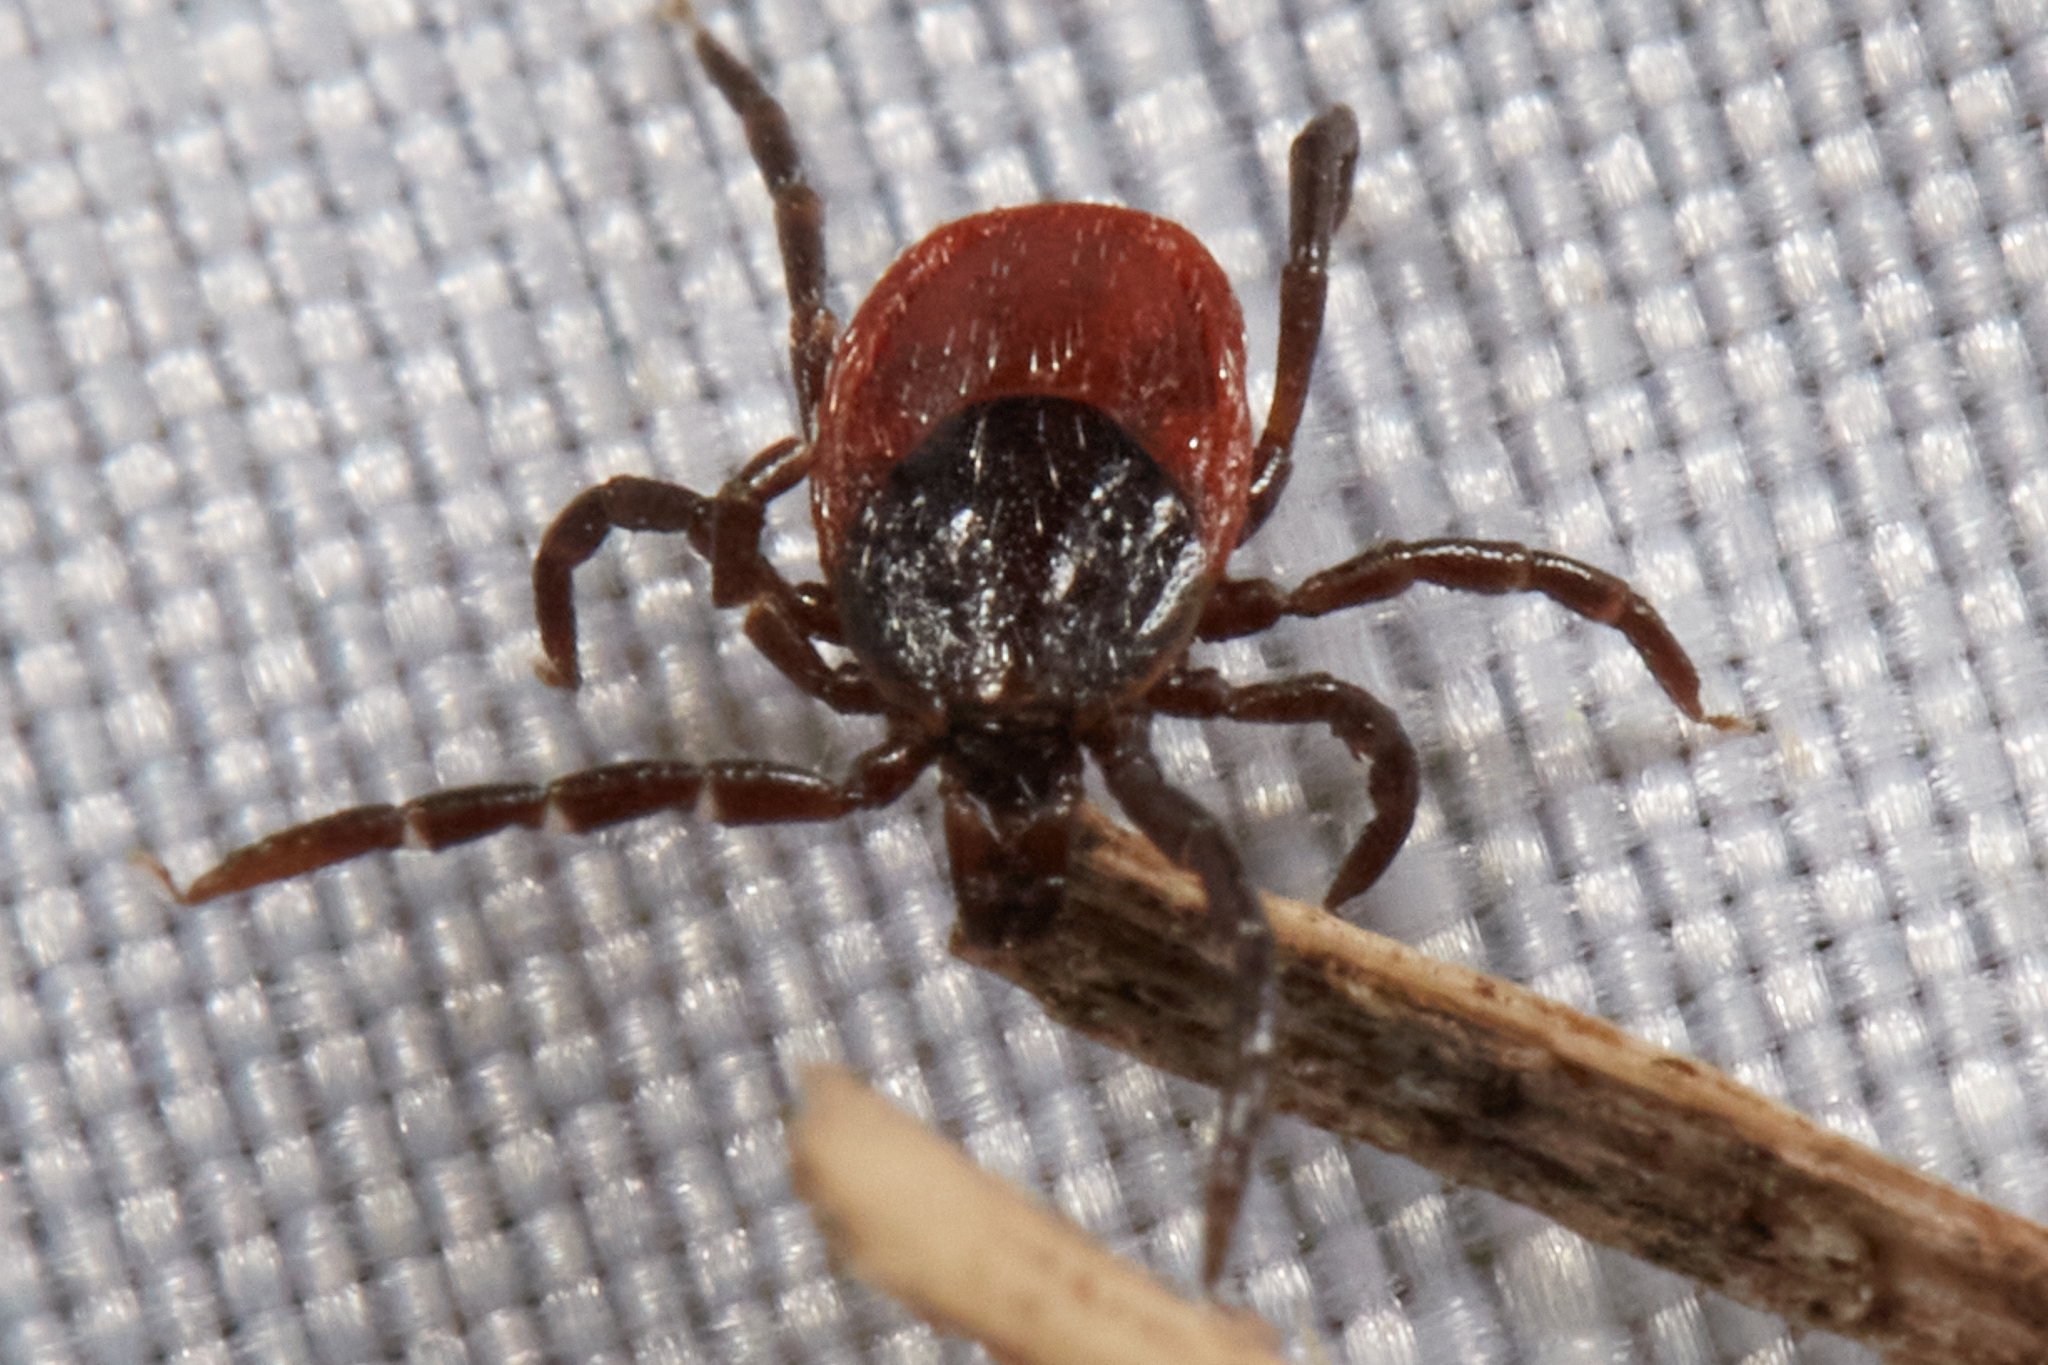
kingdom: Animalia
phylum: Arthropoda
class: Arachnida
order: Ixodida
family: Ixodidae
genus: Ixodes
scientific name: Ixodes pacificus
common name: California black-legged tick
